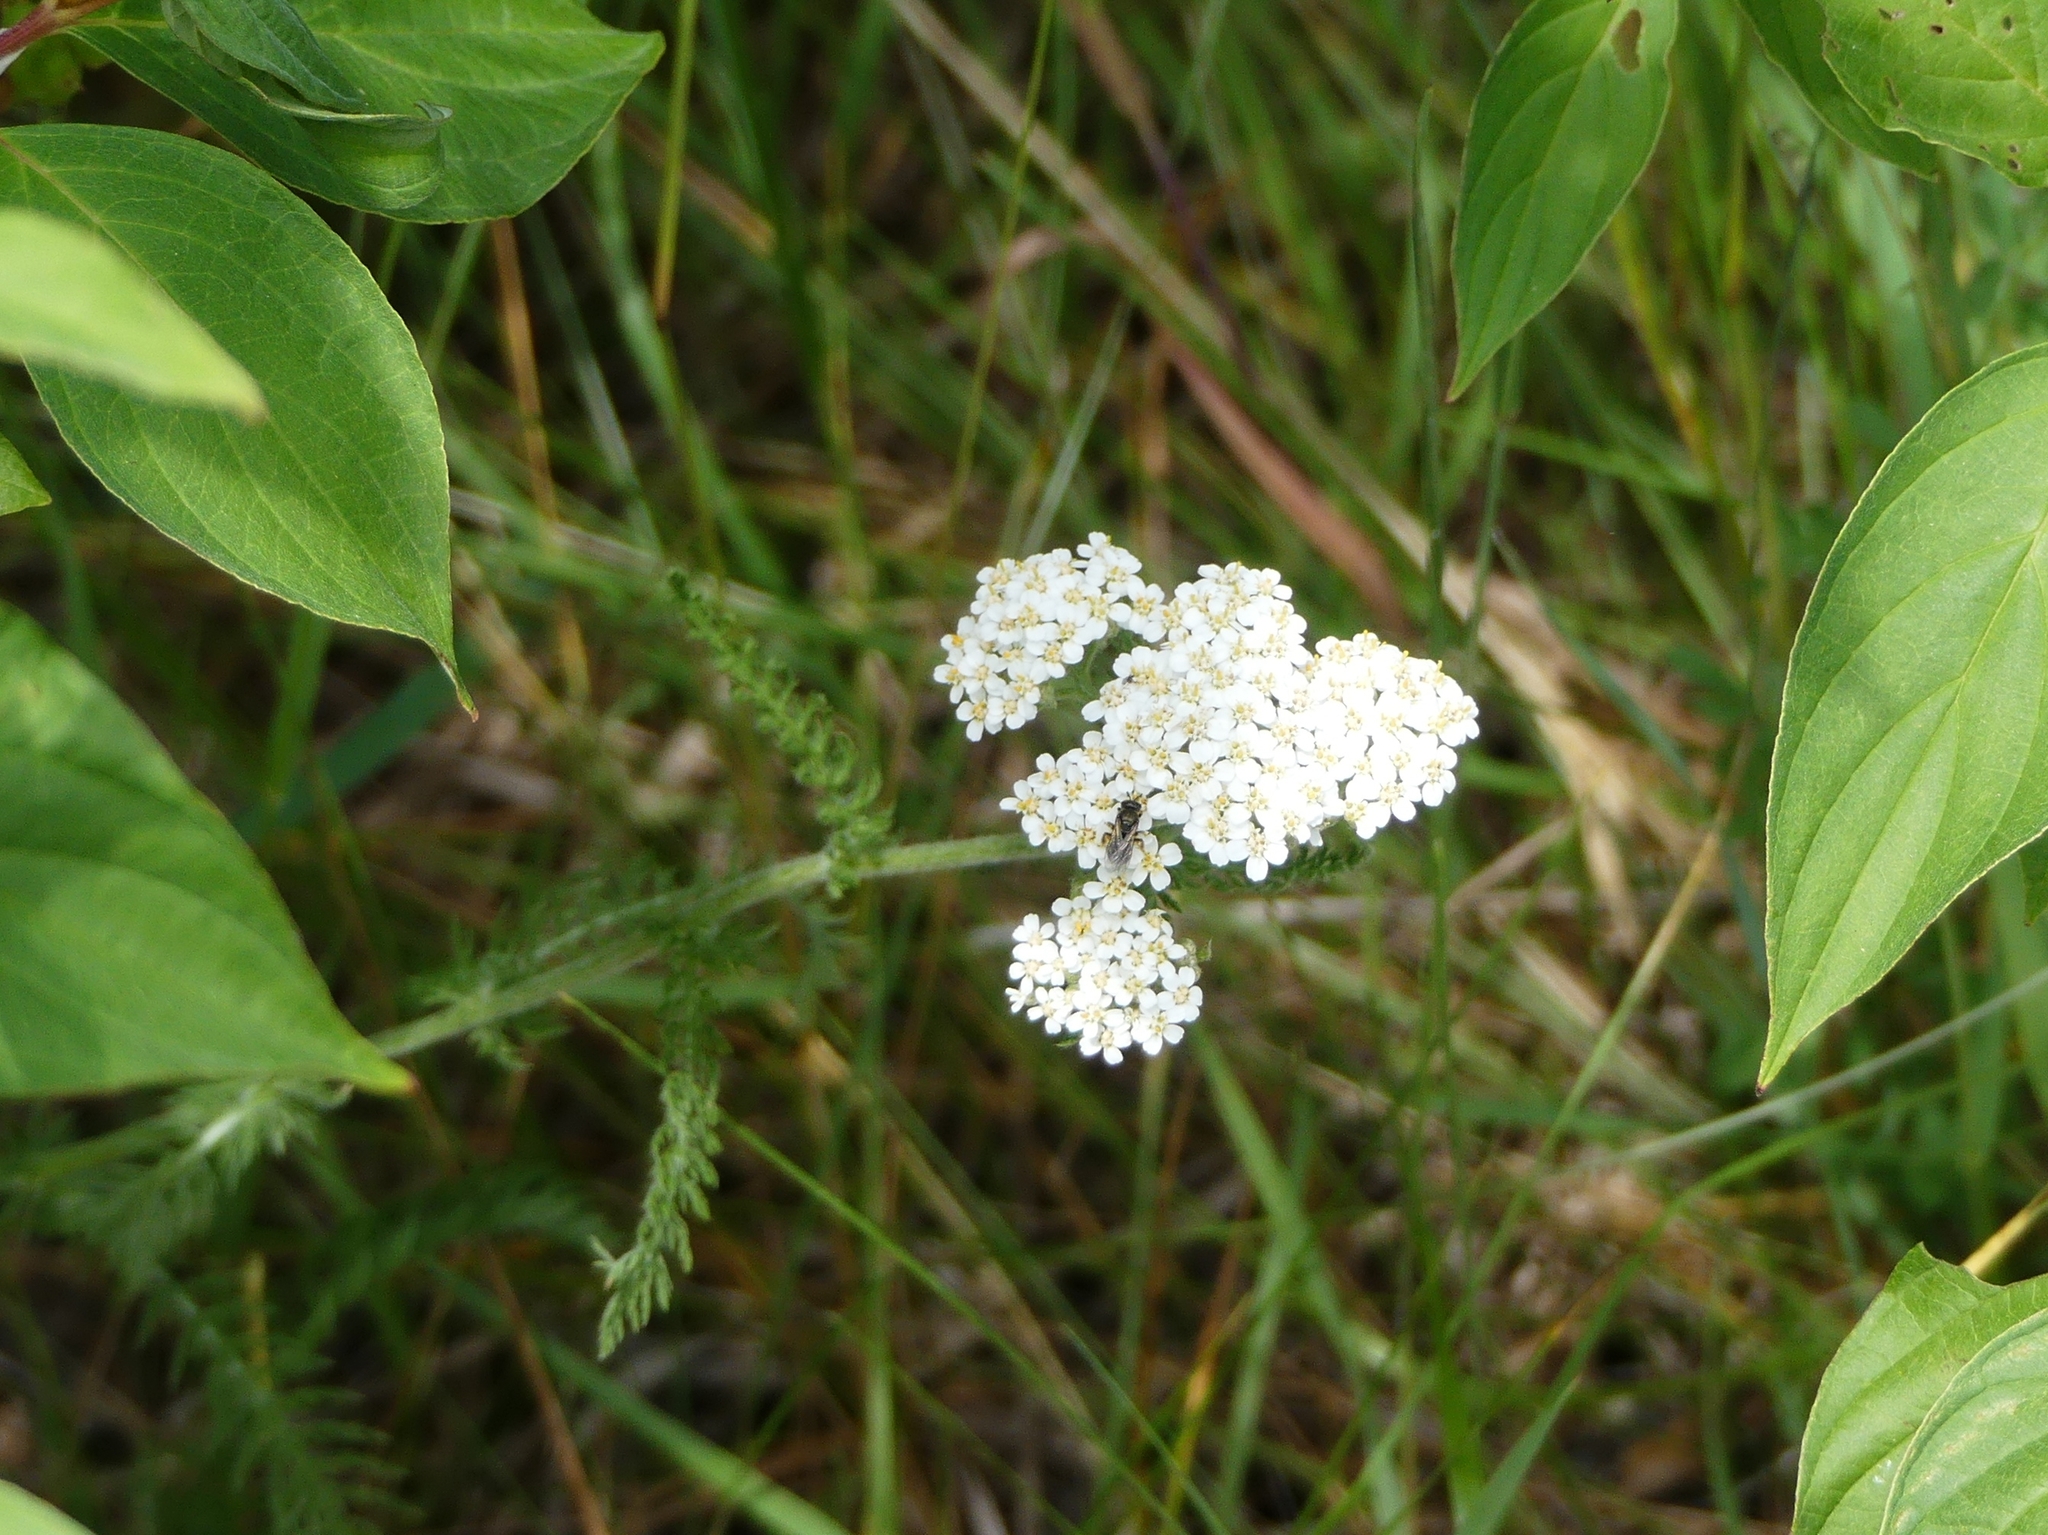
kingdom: Plantae
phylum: Tracheophyta
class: Magnoliopsida
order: Asterales
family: Asteraceae
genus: Achillea
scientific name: Achillea millefolium
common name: Yarrow
